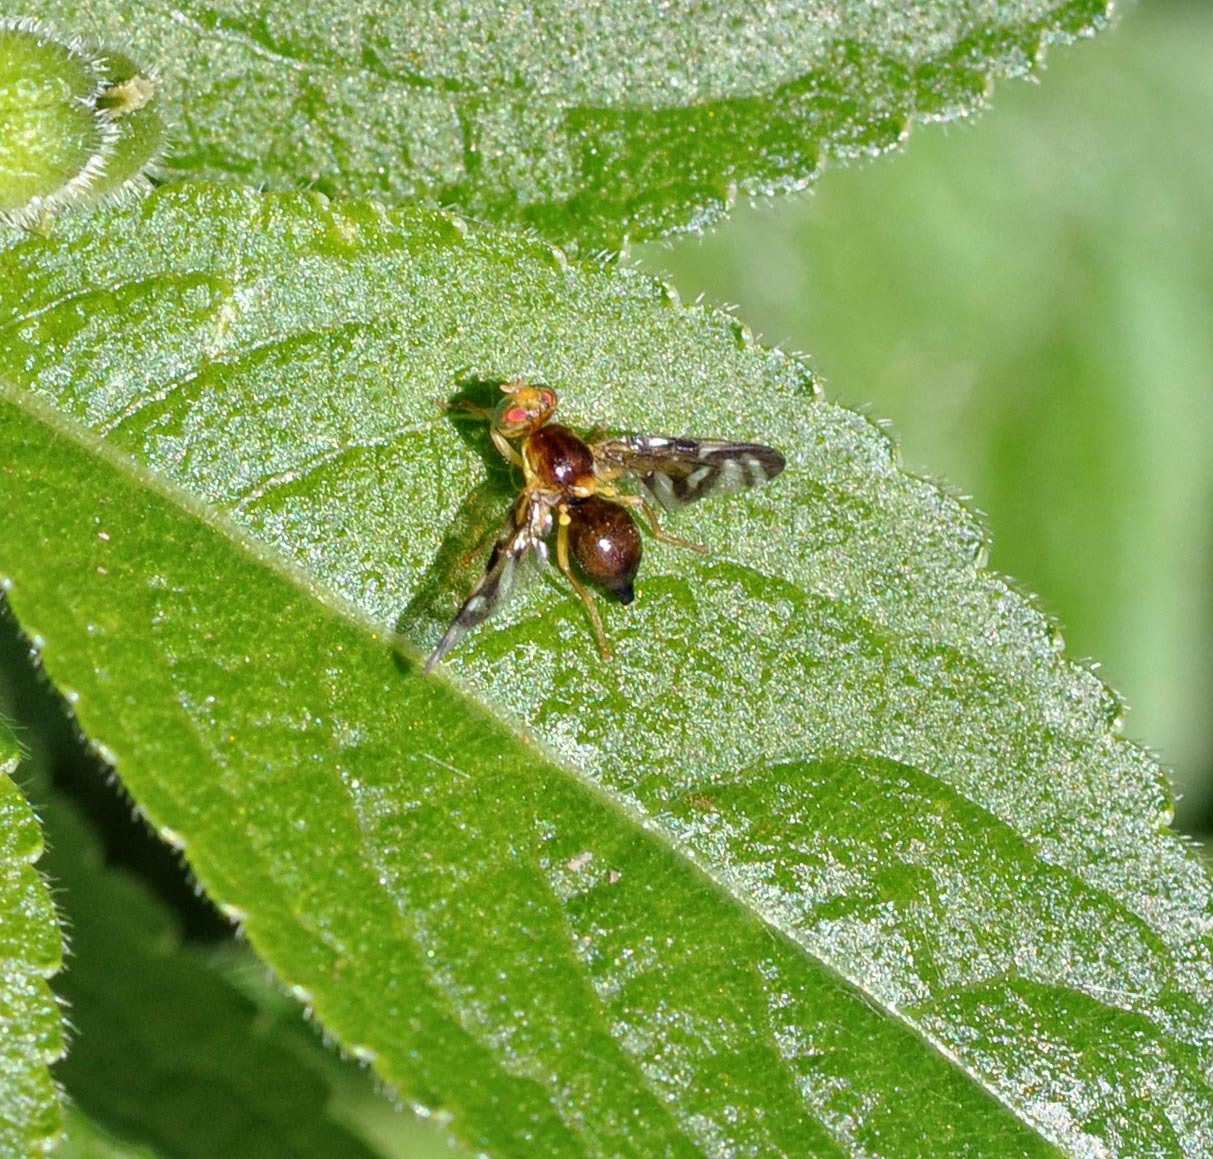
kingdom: Animalia
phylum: Arthropoda
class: Insecta
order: Diptera
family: Tephritidae
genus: Euleia
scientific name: Euleia heraclei
